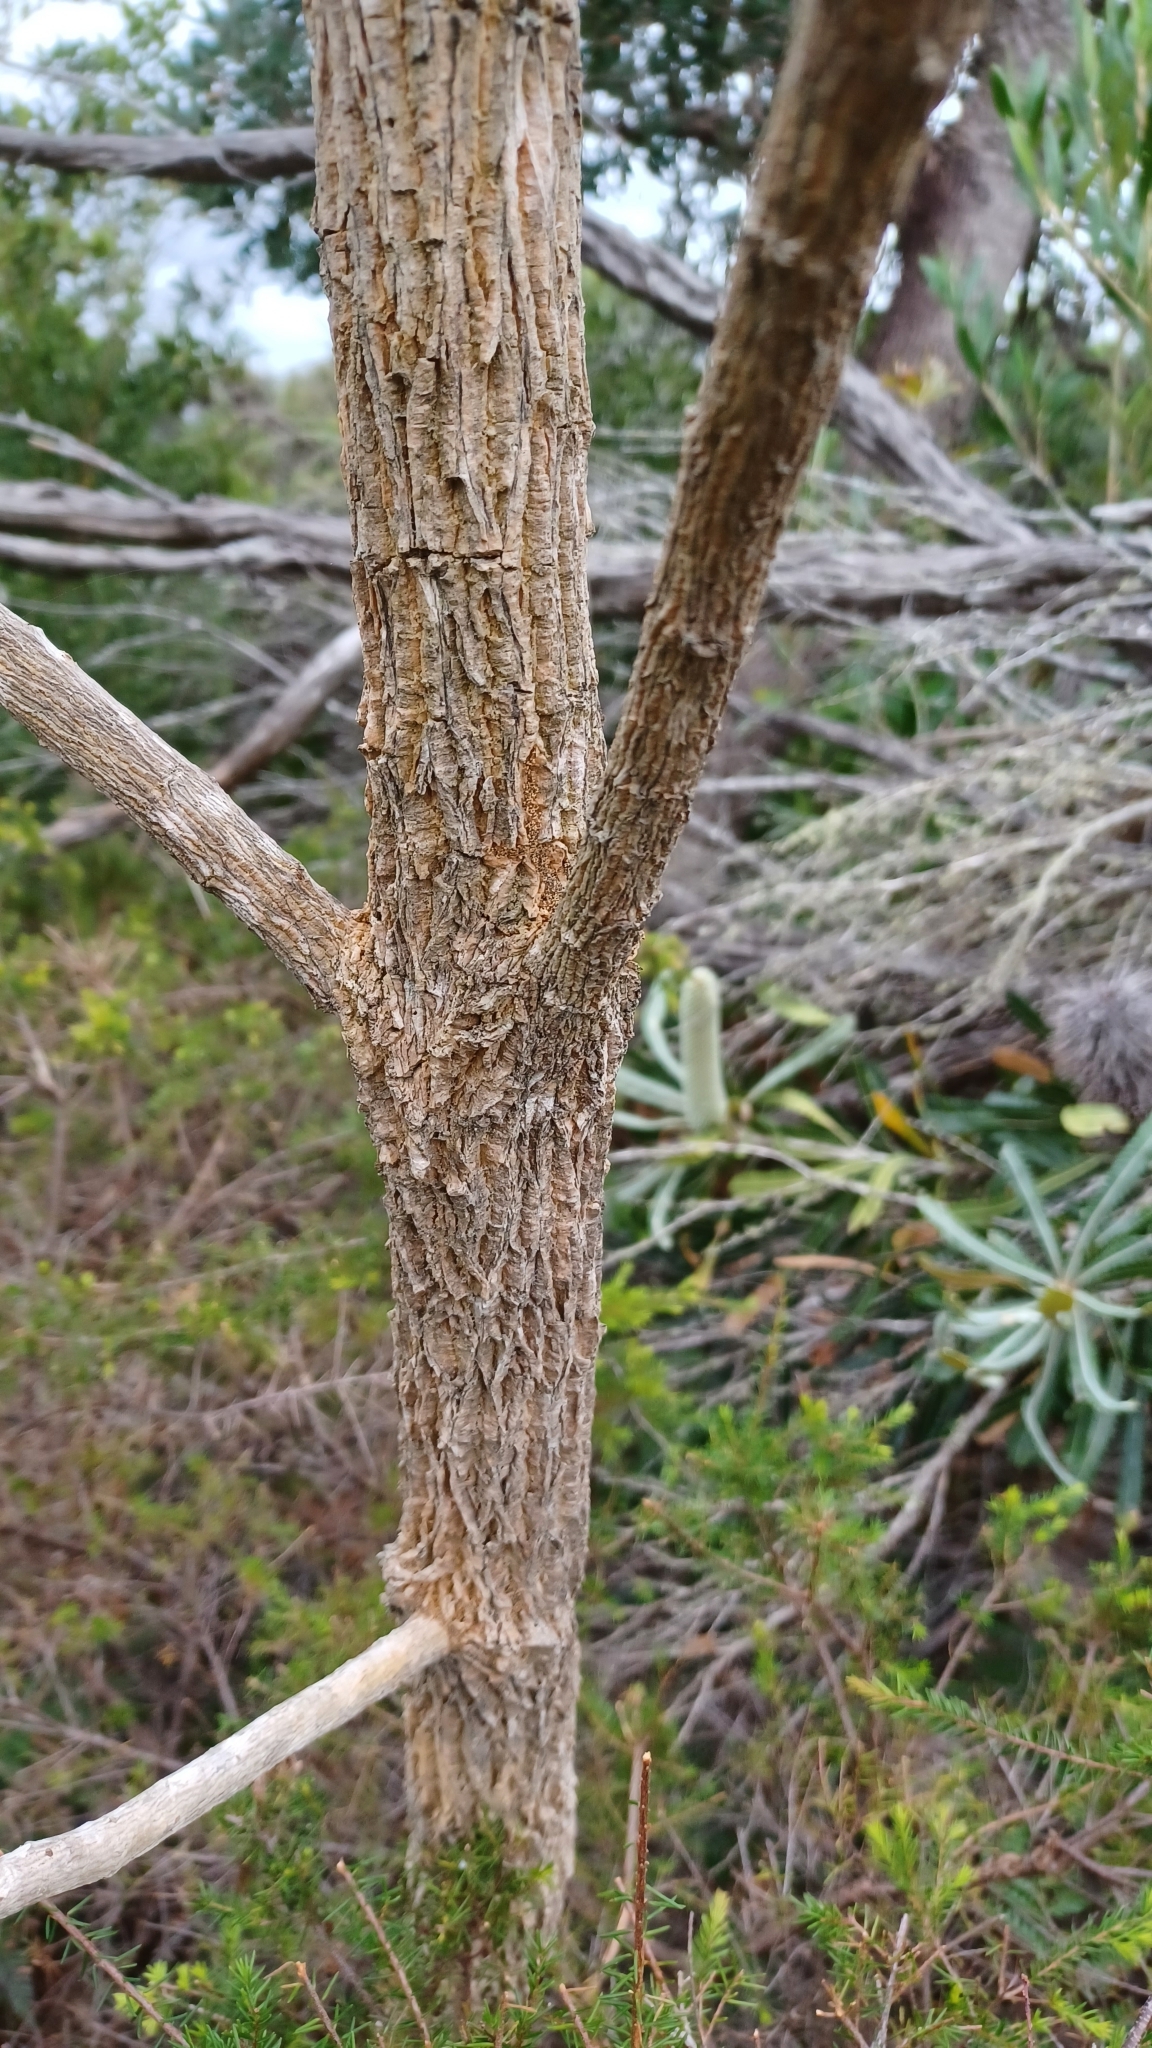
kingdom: Plantae
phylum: Tracheophyta
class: Magnoliopsida
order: Solanales
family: Solanaceae
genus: Duboisia
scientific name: Duboisia myoporoides
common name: Corkwoodtree
